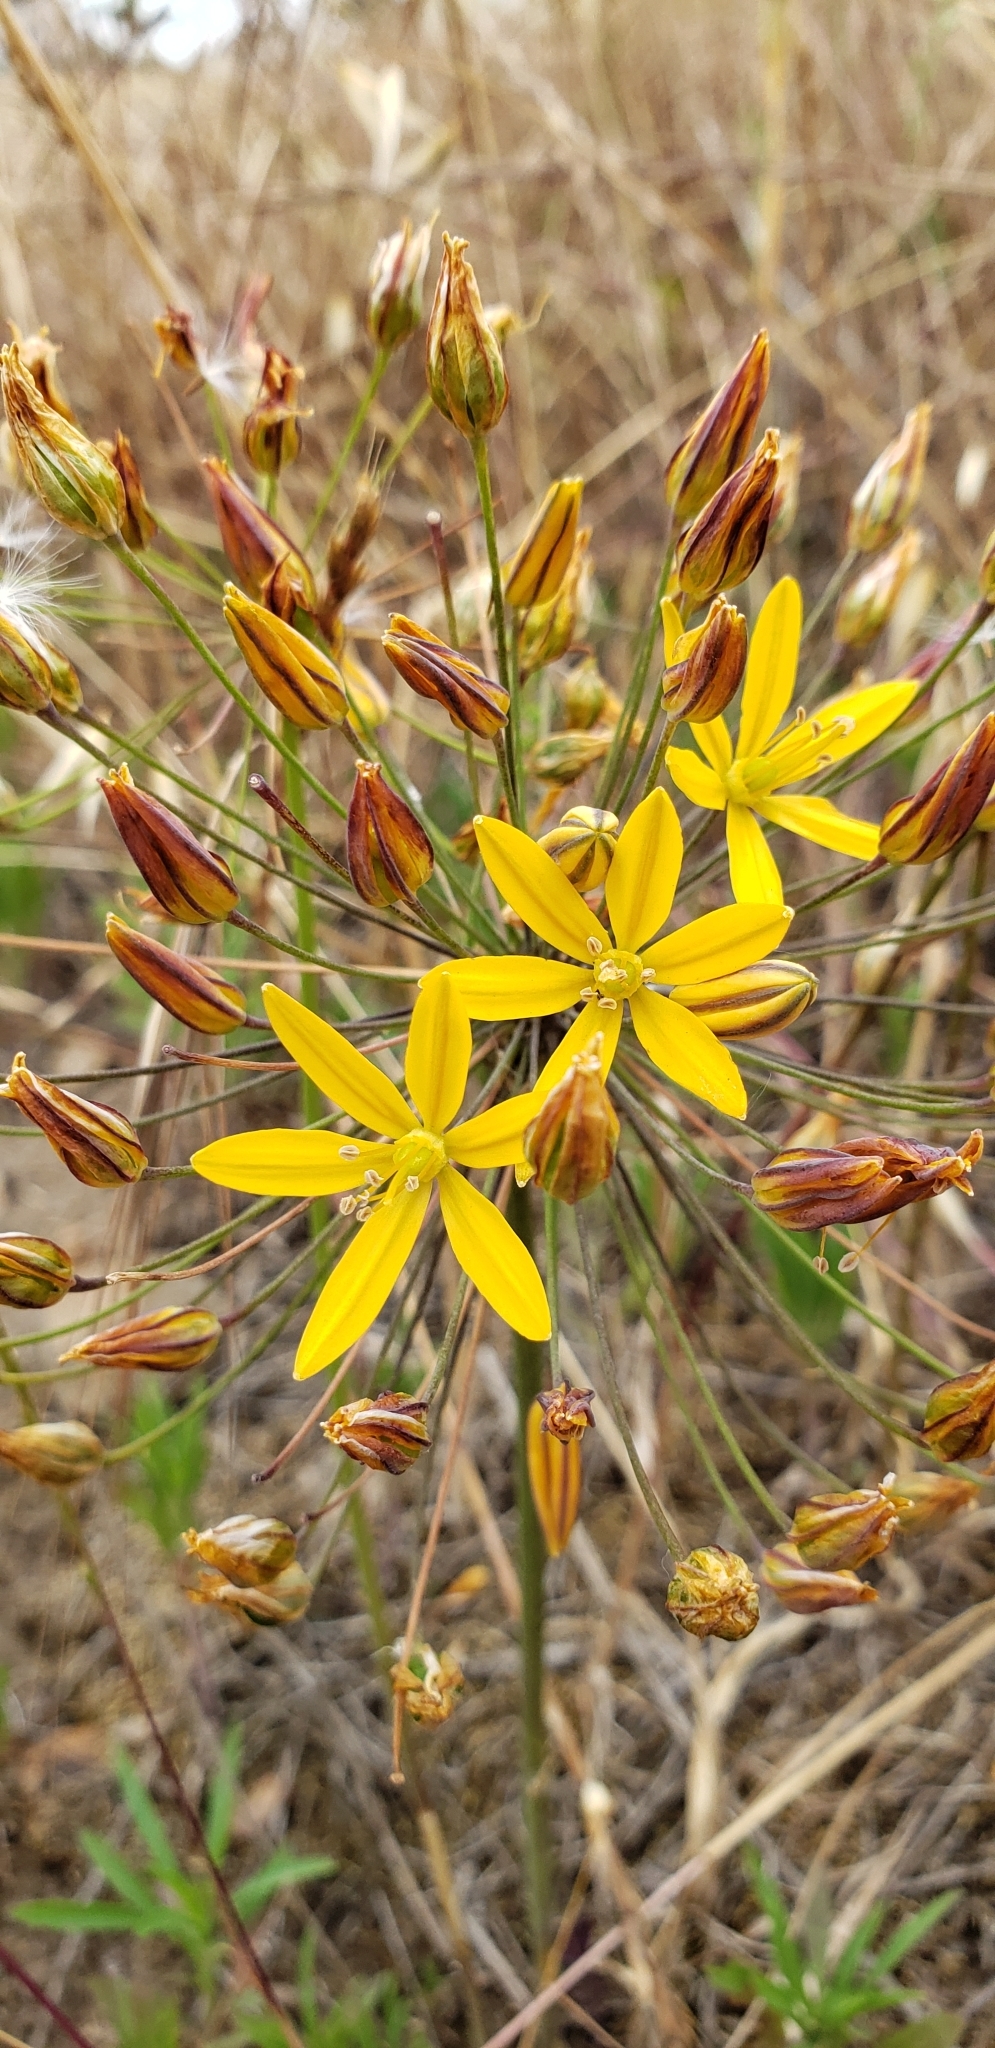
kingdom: Plantae
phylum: Tracheophyta
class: Liliopsida
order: Asparagales
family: Asparagaceae
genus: Bloomeria
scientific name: Bloomeria crocea
